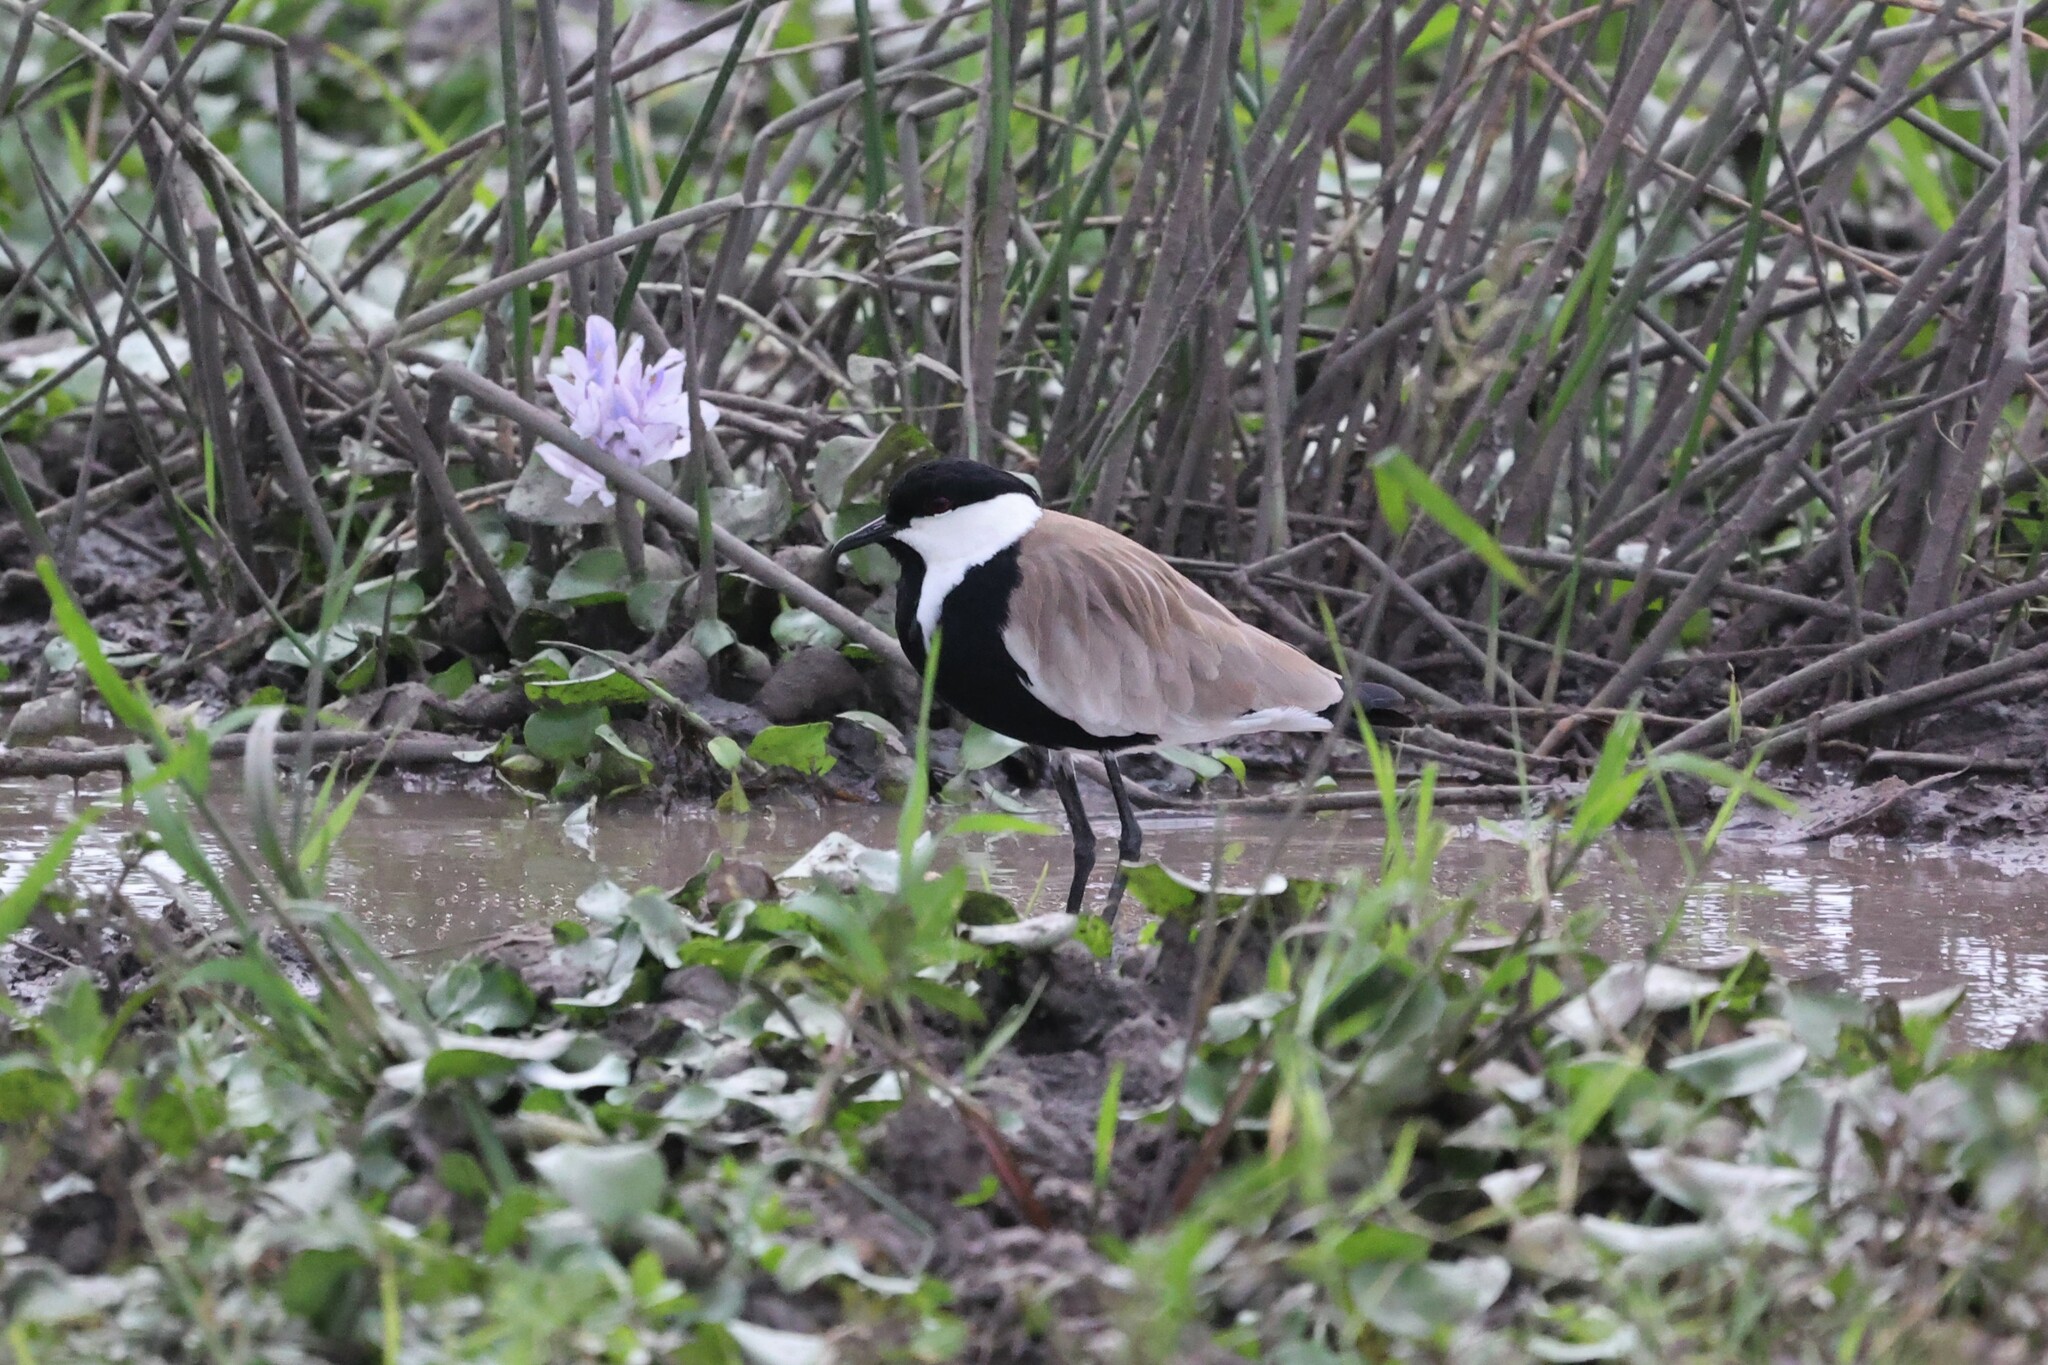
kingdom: Animalia
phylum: Chordata
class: Aves
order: Charadriiformes
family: Charadriidae
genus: Vanellus
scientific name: Vanellus spinosus
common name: Spur-winged lapwing
